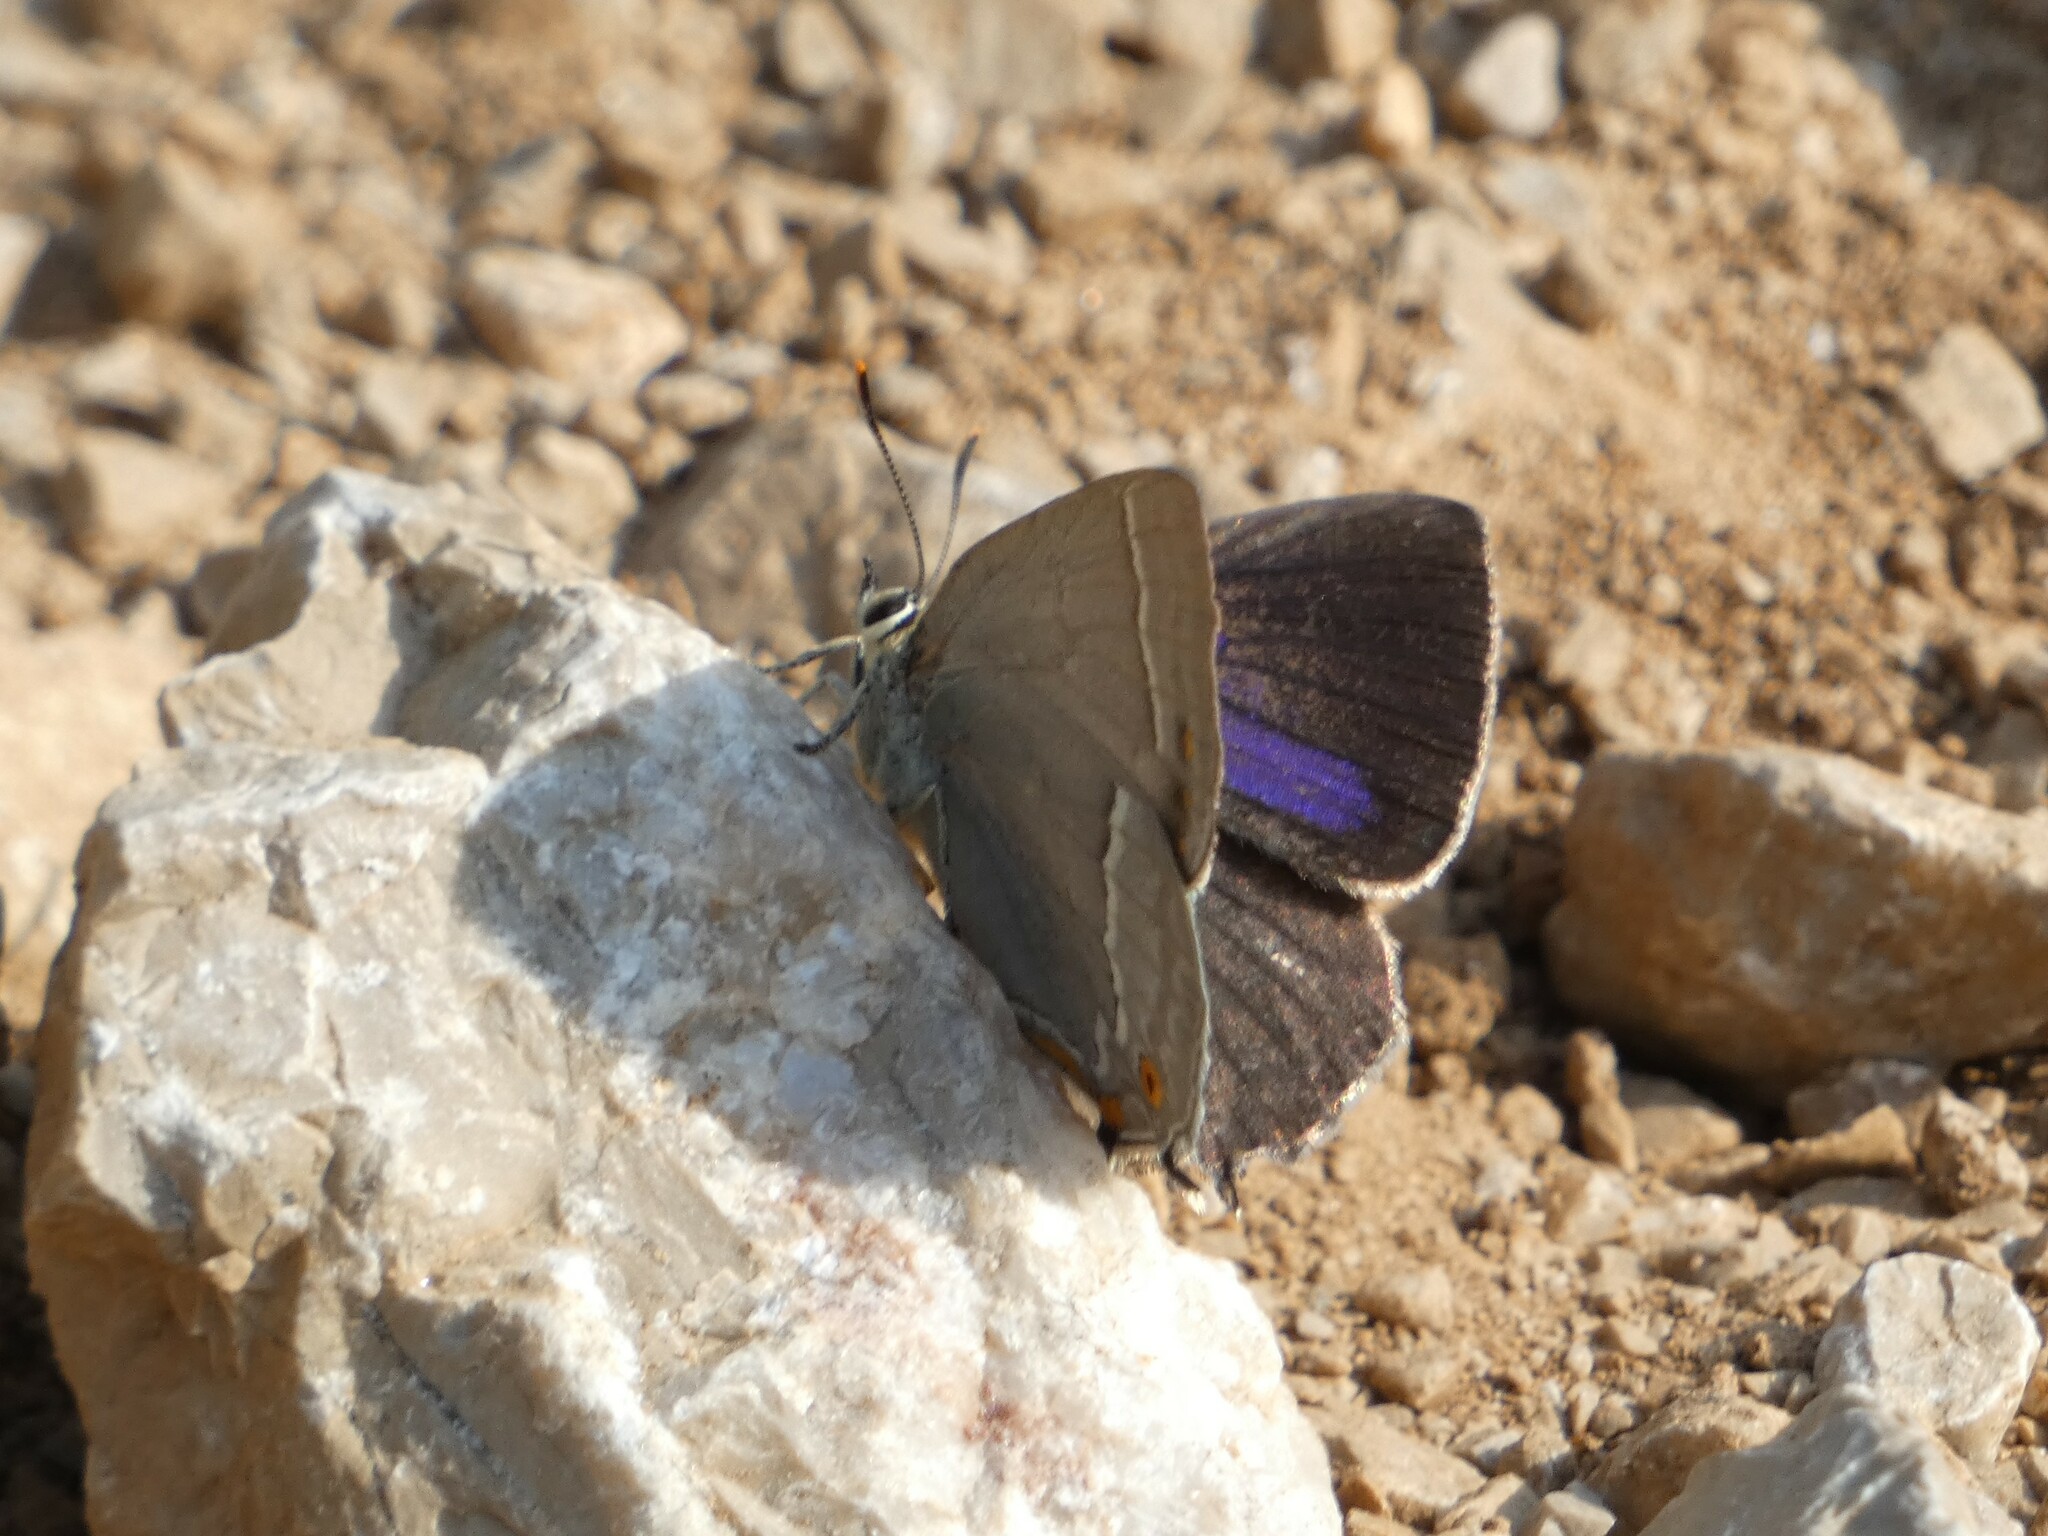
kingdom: Animalia
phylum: Arthropoda
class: Insecta
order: Lepidoptera
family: Lycaenidae
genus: Quercusia
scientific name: Quercusia quercus
